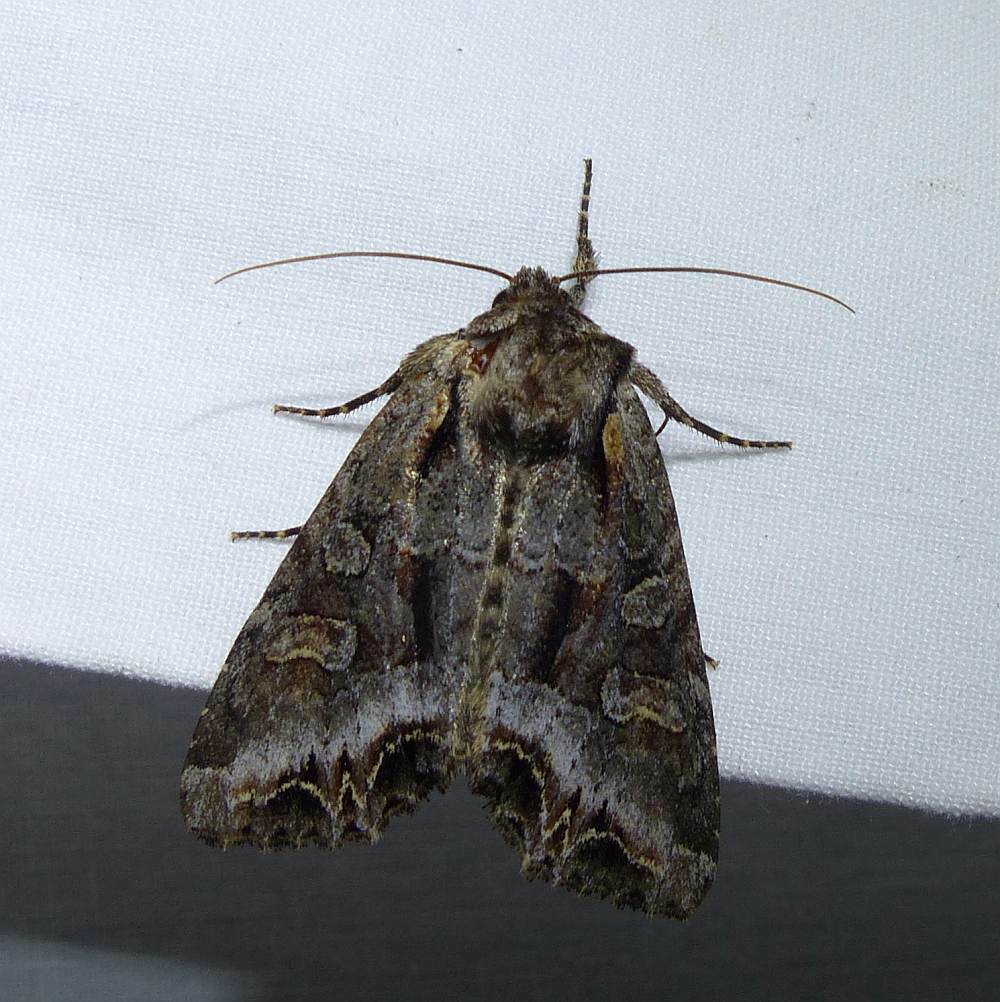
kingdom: Animalia
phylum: Arthropoda
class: Insecta
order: Lepidoptera
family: Noctuidae
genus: Lacanobia
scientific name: Lacanobia grandis
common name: Grand arches moth
